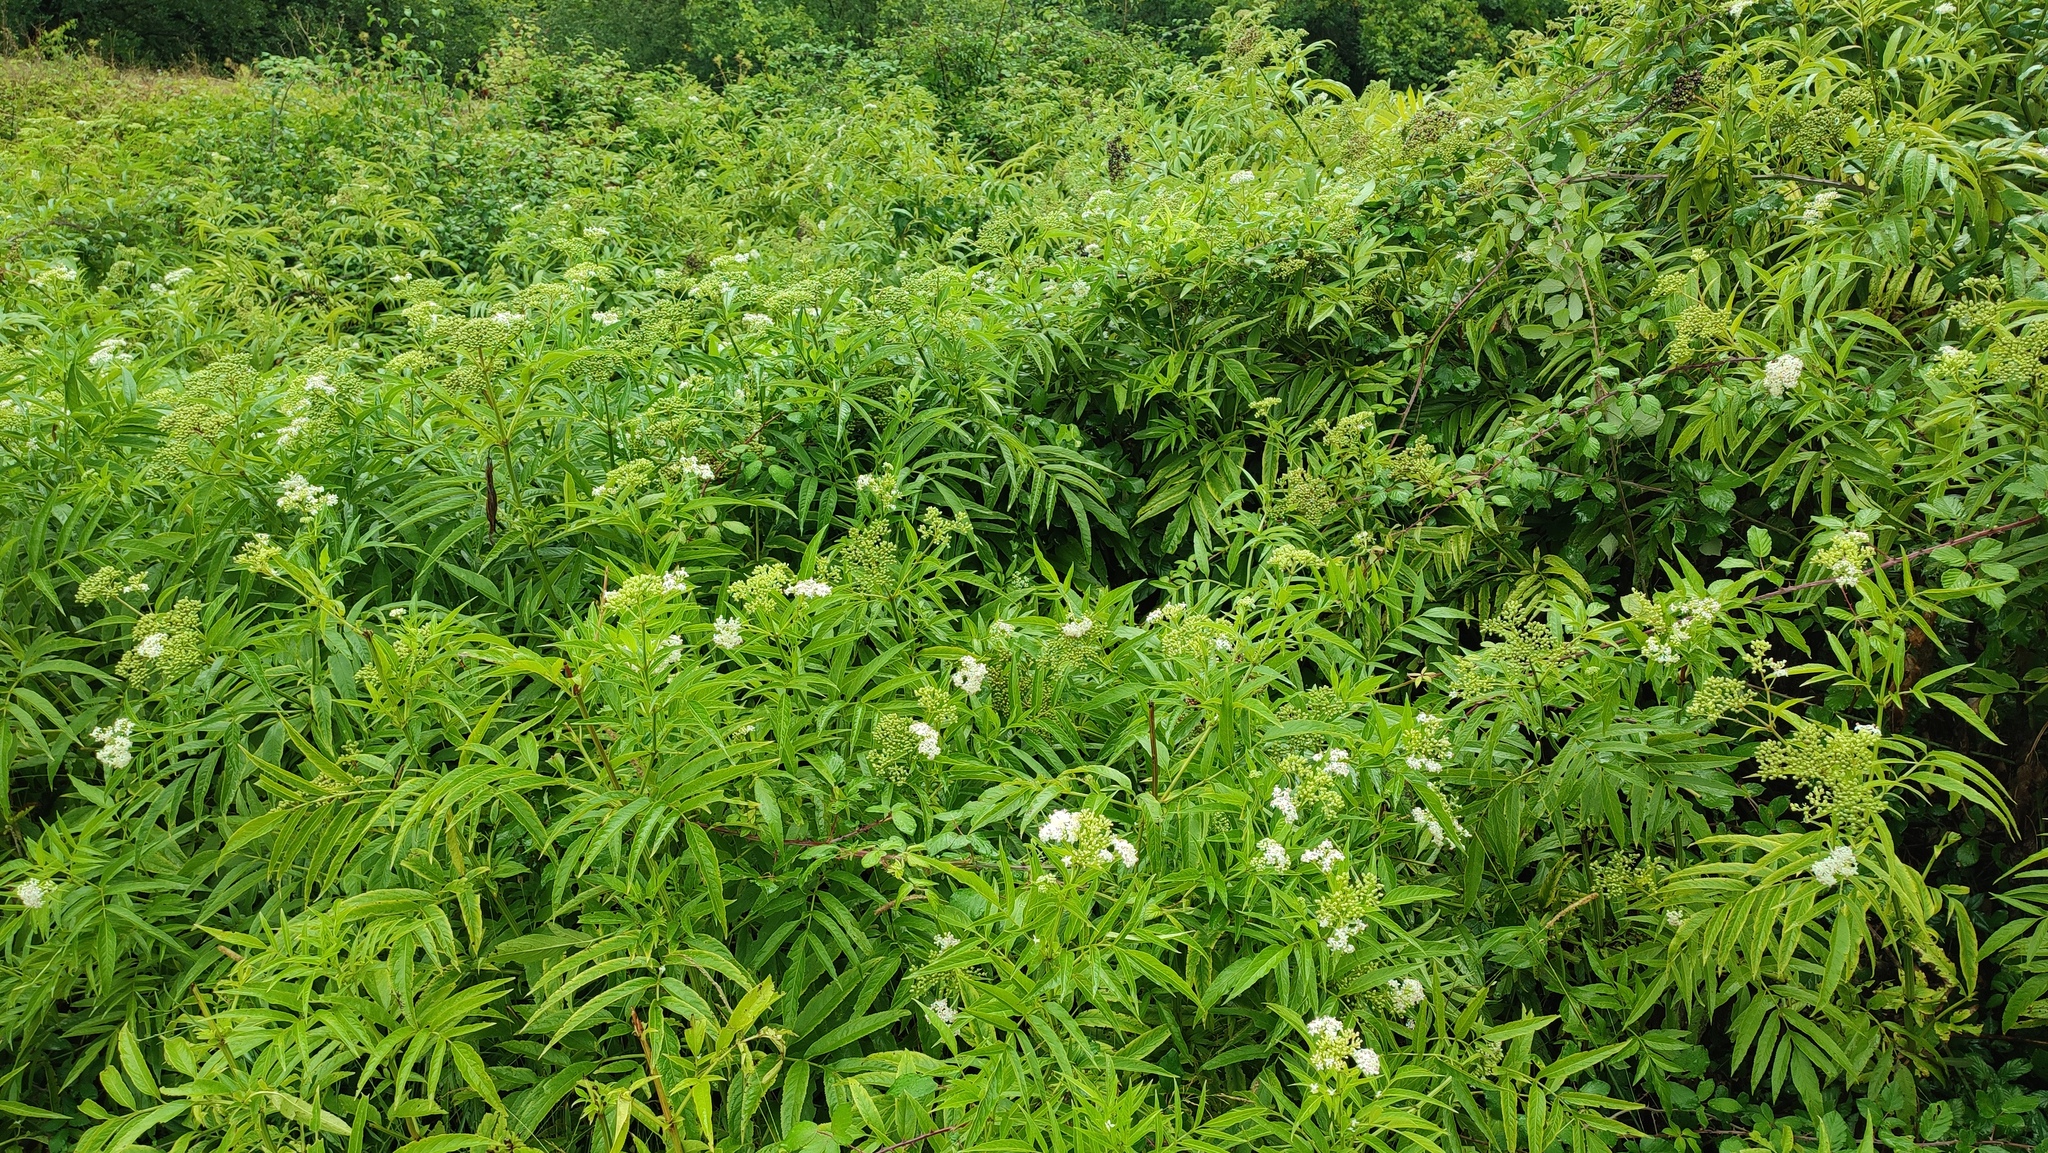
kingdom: Plantae
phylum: Tracheophyta
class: Magnoliopsida
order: Dipsacales
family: Viburnaceae
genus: Sambucus
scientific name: Sambucus ebulus
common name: Dwarf elder
